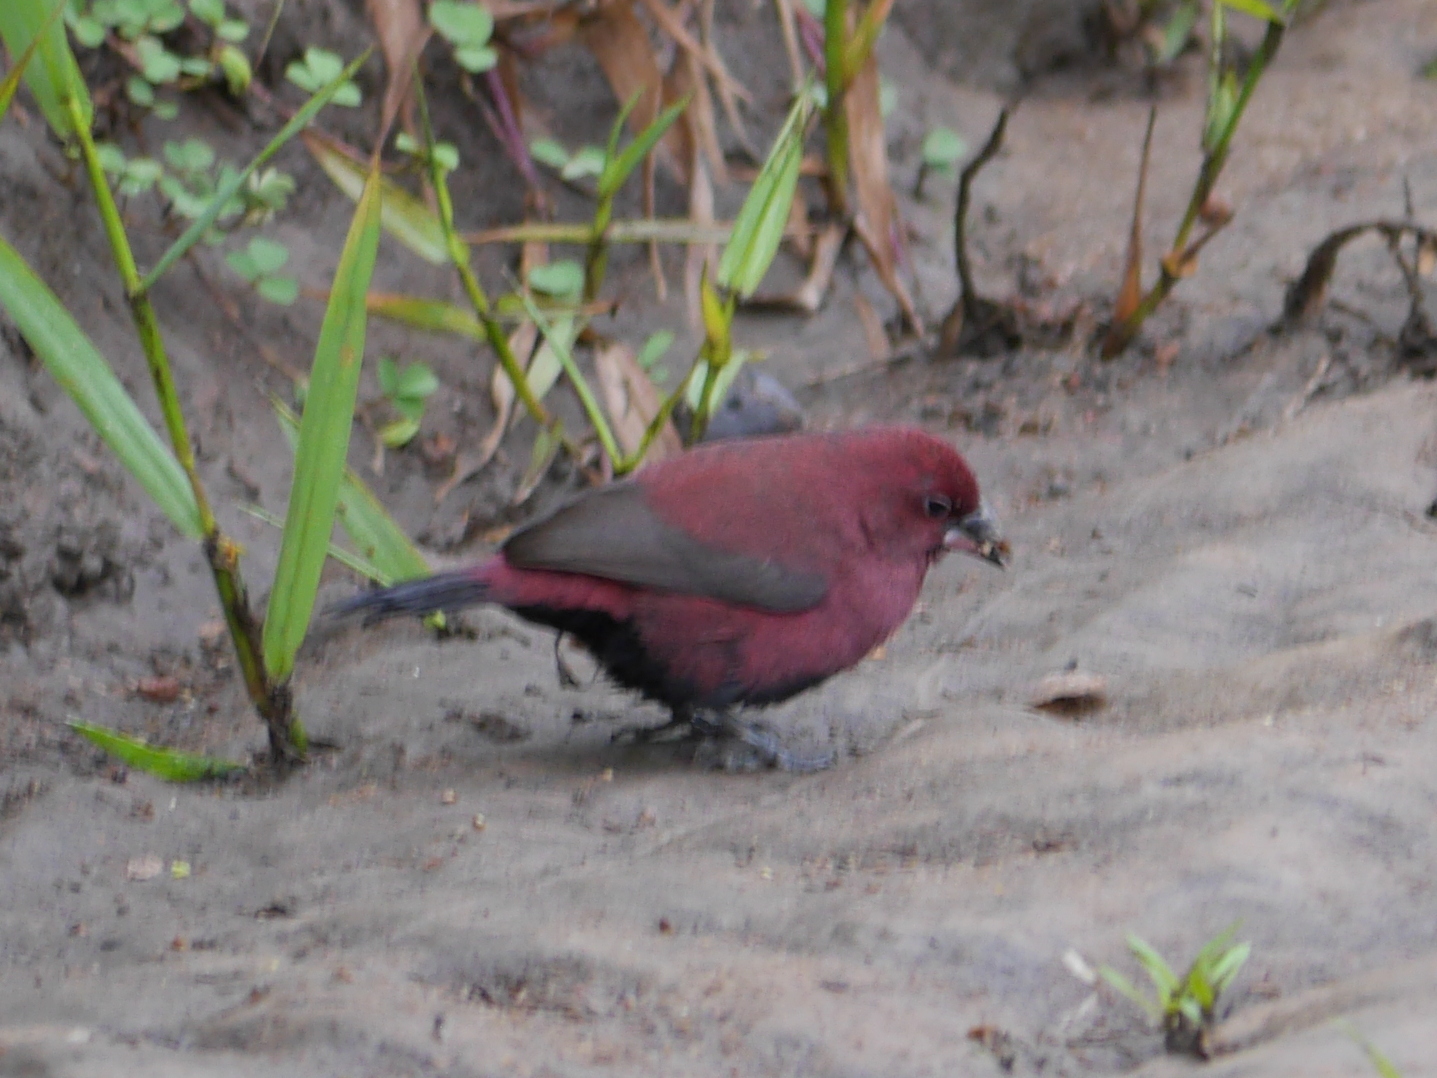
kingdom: Animalia
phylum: Chordata
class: Aves
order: Passeriformes
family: Estrildidae
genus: Lagonosticta
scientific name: Lagonosticta rara
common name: Black-bellied firefinch
